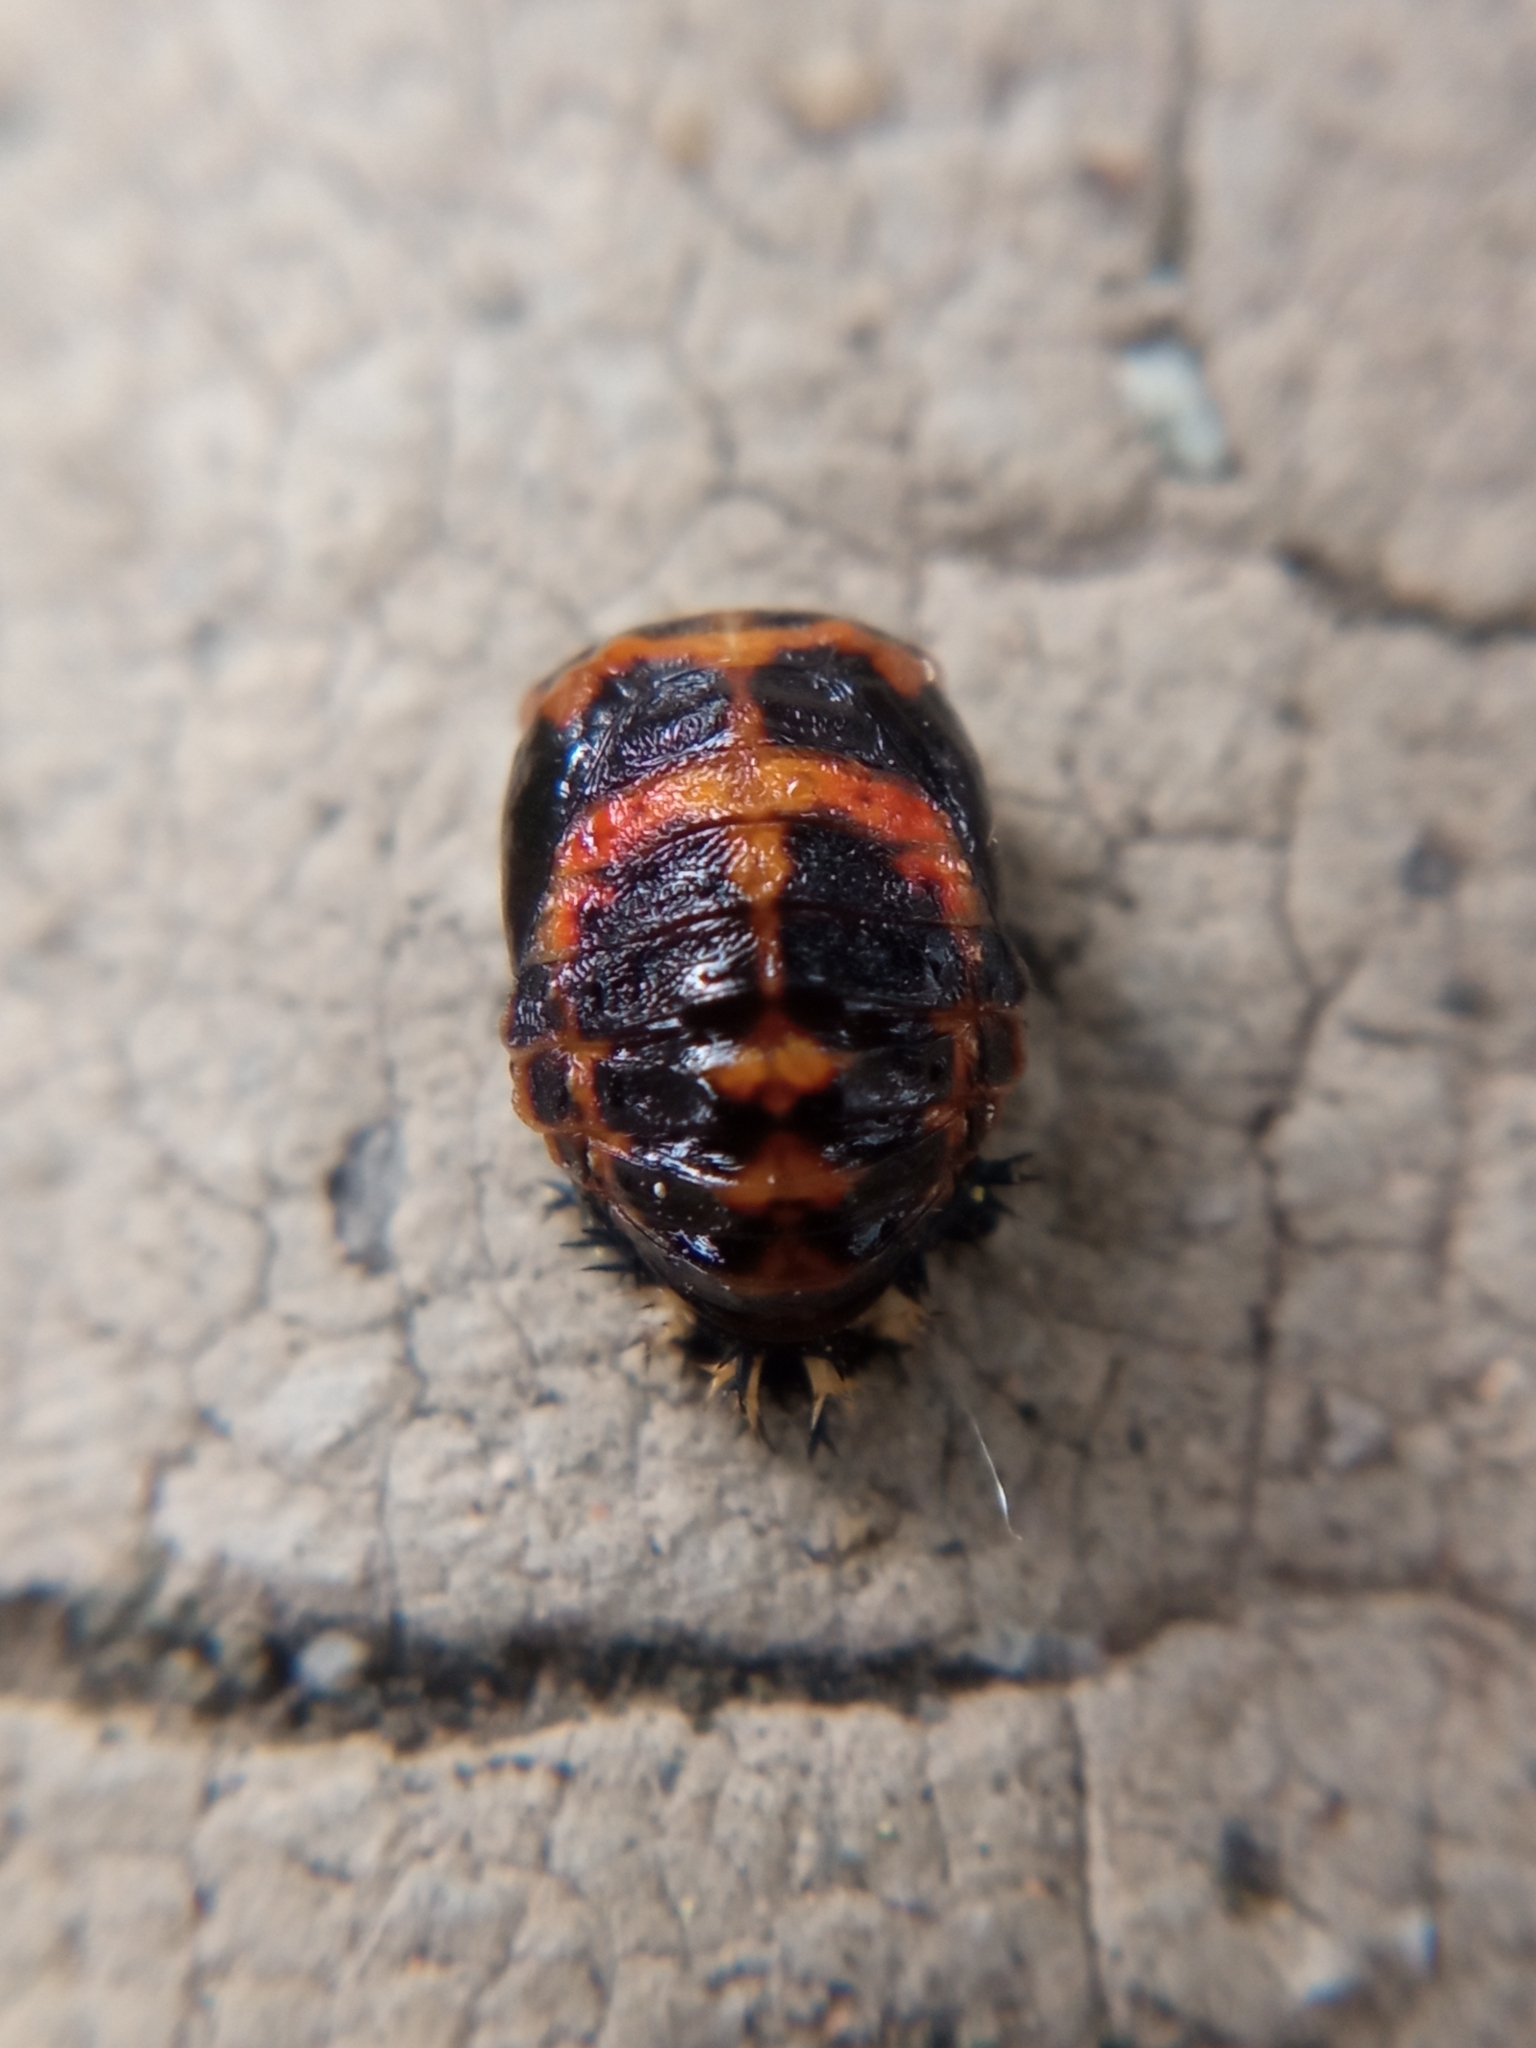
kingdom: Animalia
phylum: Arthropoda
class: Insecta
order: Coleoptera
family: Coccinellidae
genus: Harmonia
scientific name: Harmonia axyridis
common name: Harlequin ladybird
